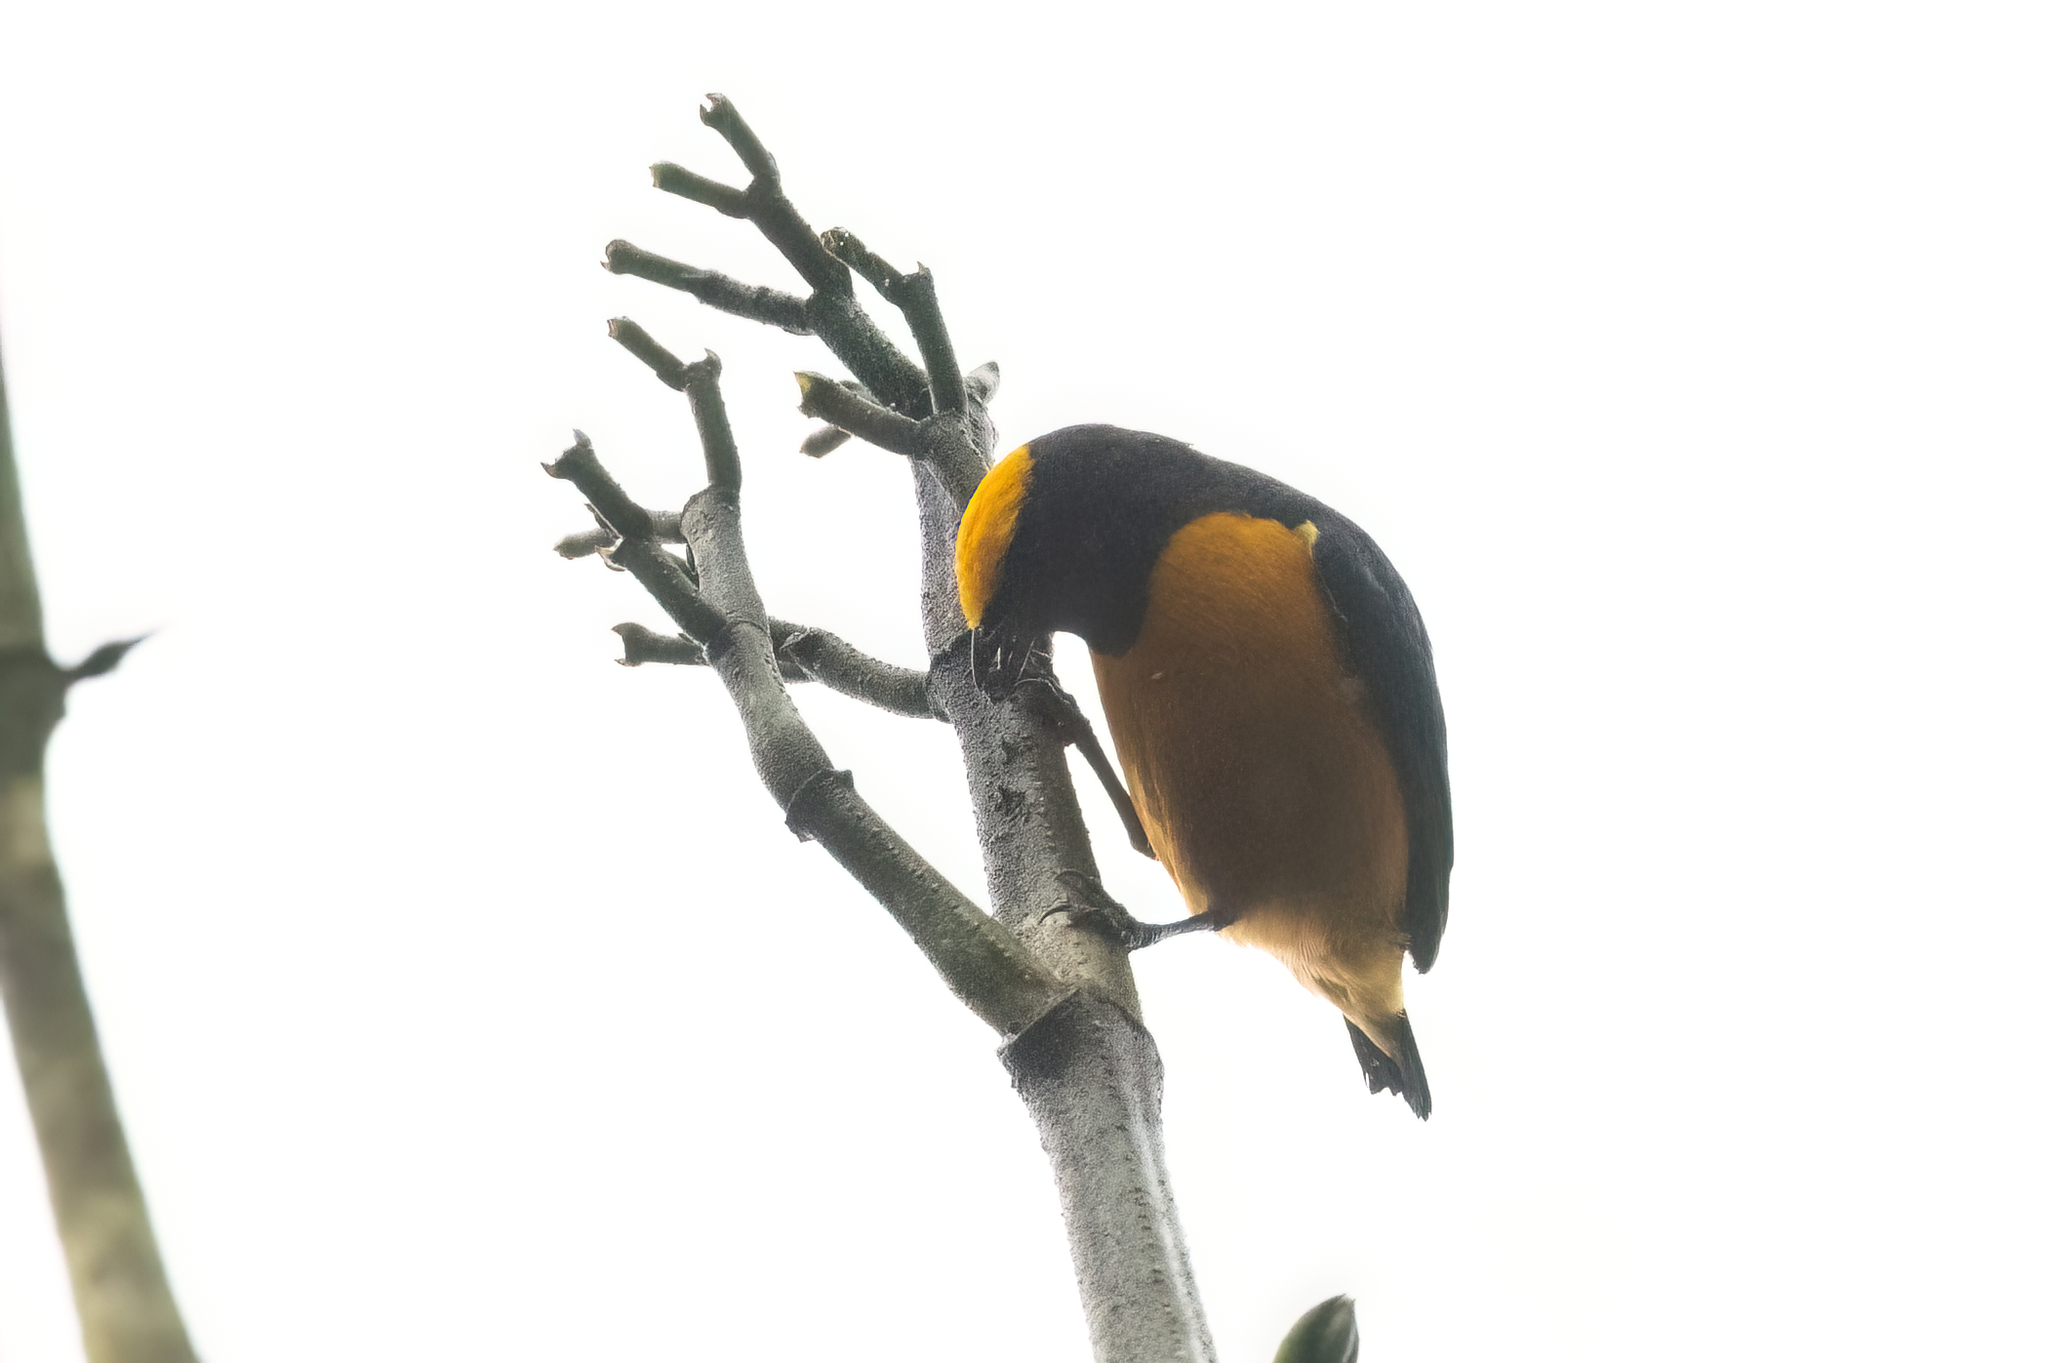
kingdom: Animalia
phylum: Chordata
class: Aves
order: Passeriformes
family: Fringillidae
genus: Euphonia
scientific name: Euphonia saturata
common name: Orange-crowned euphonia
